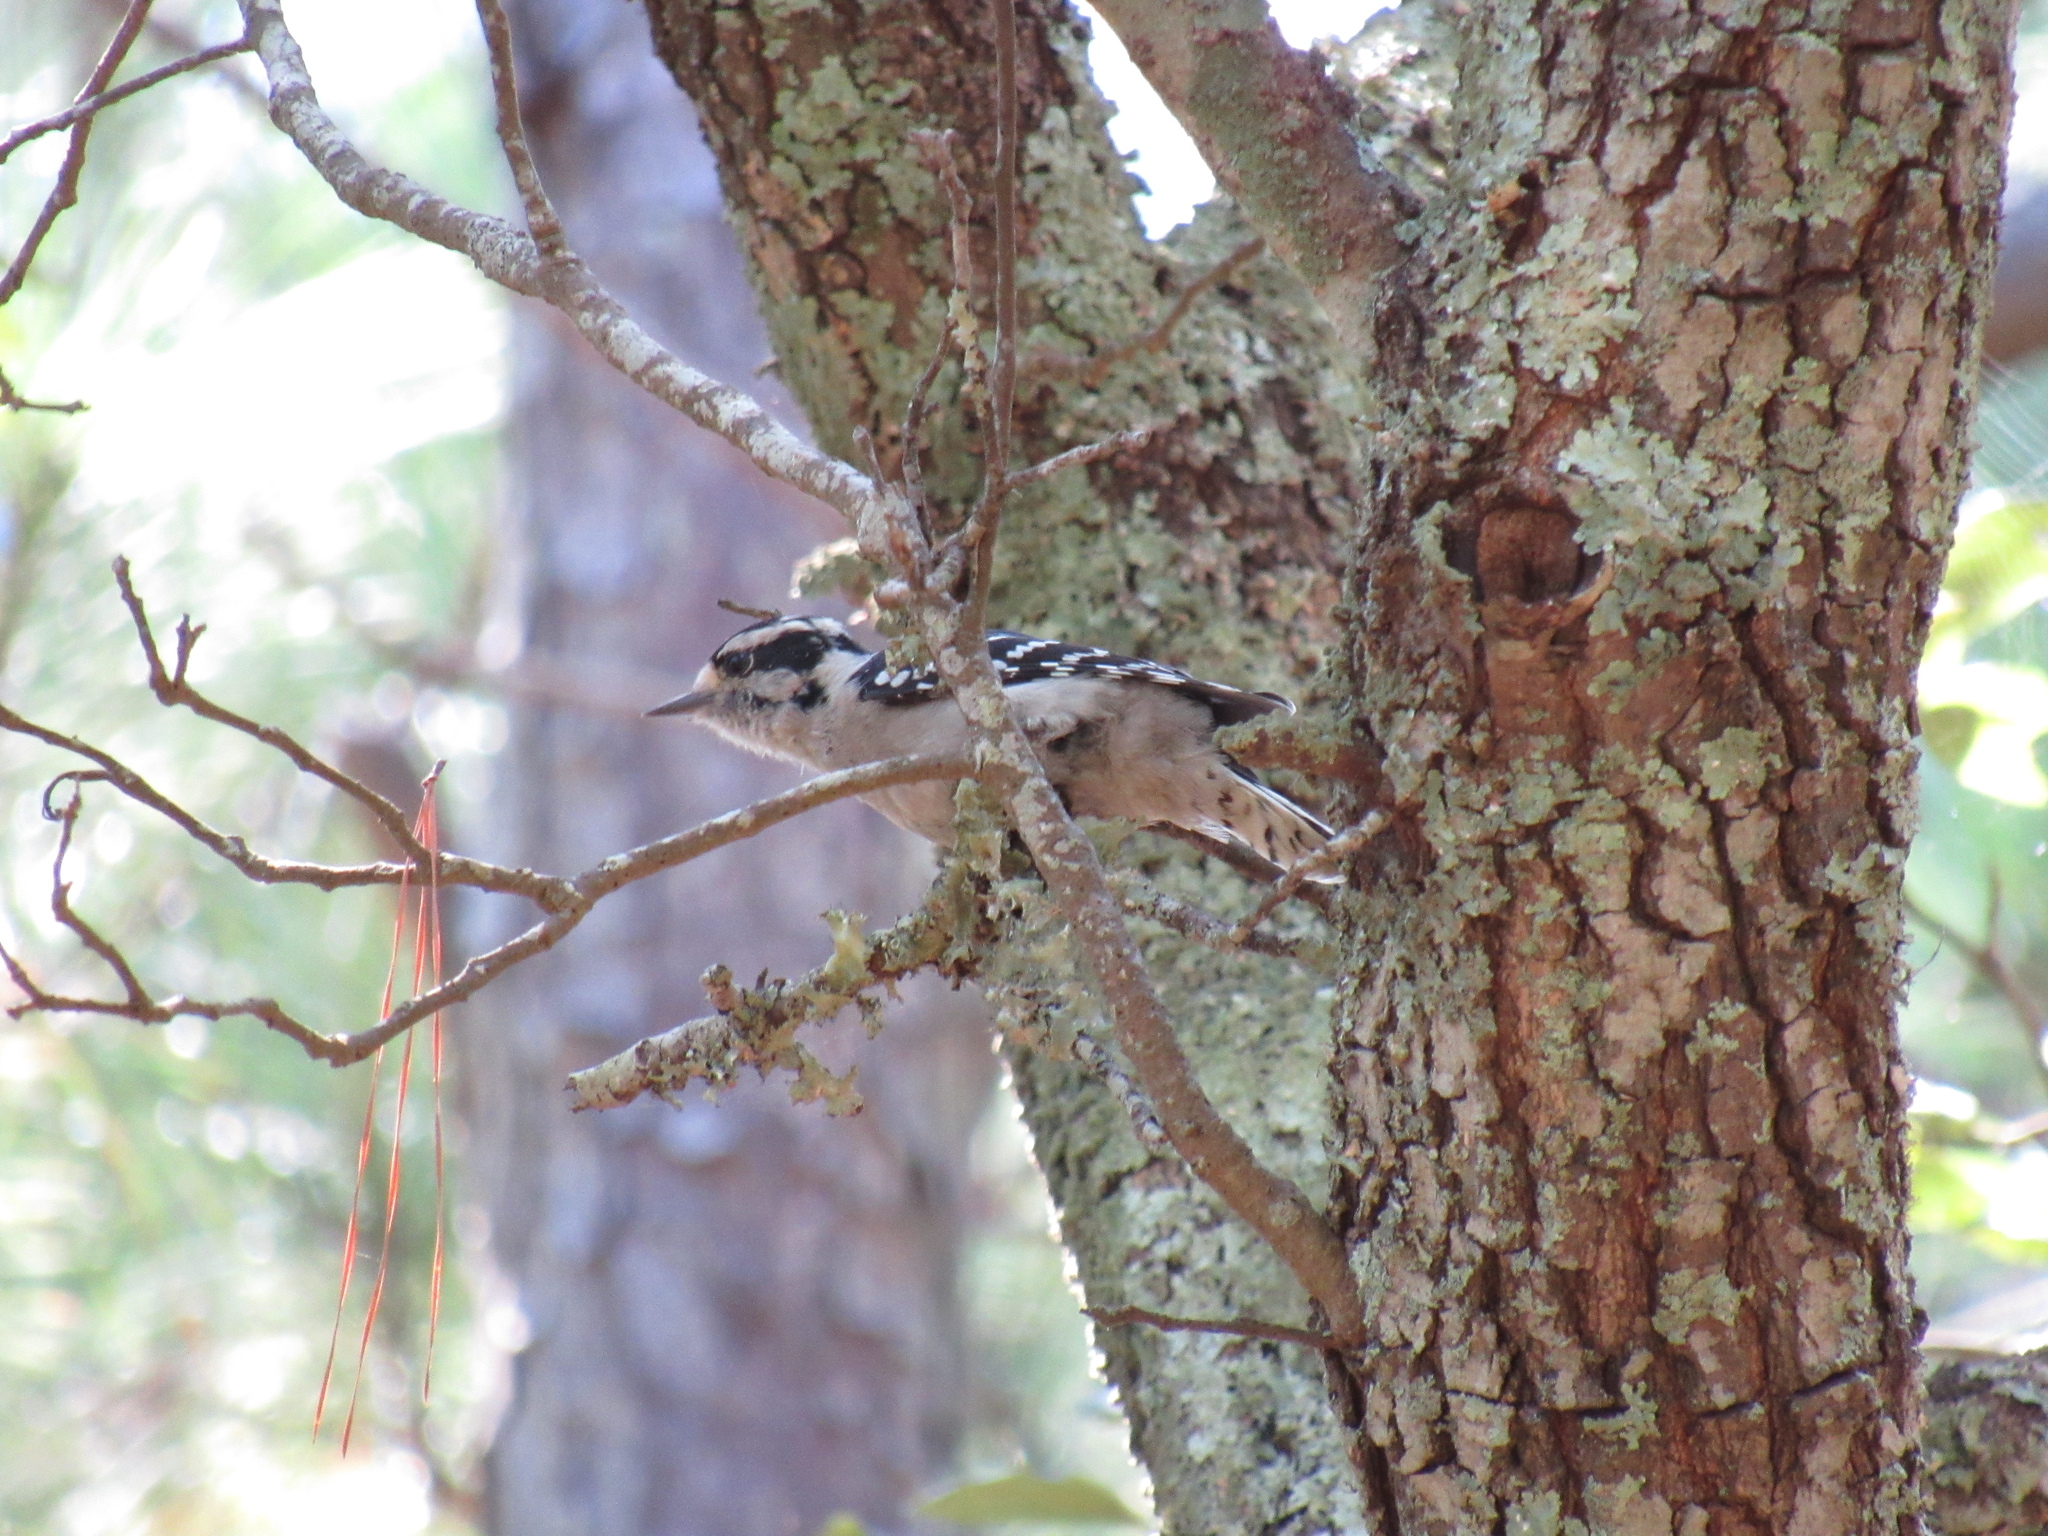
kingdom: Animalia
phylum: Chordata
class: Aves
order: Piciformes
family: Picidae
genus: Dryobates
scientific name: Dryobates pubescens
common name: Downy woodpecker
